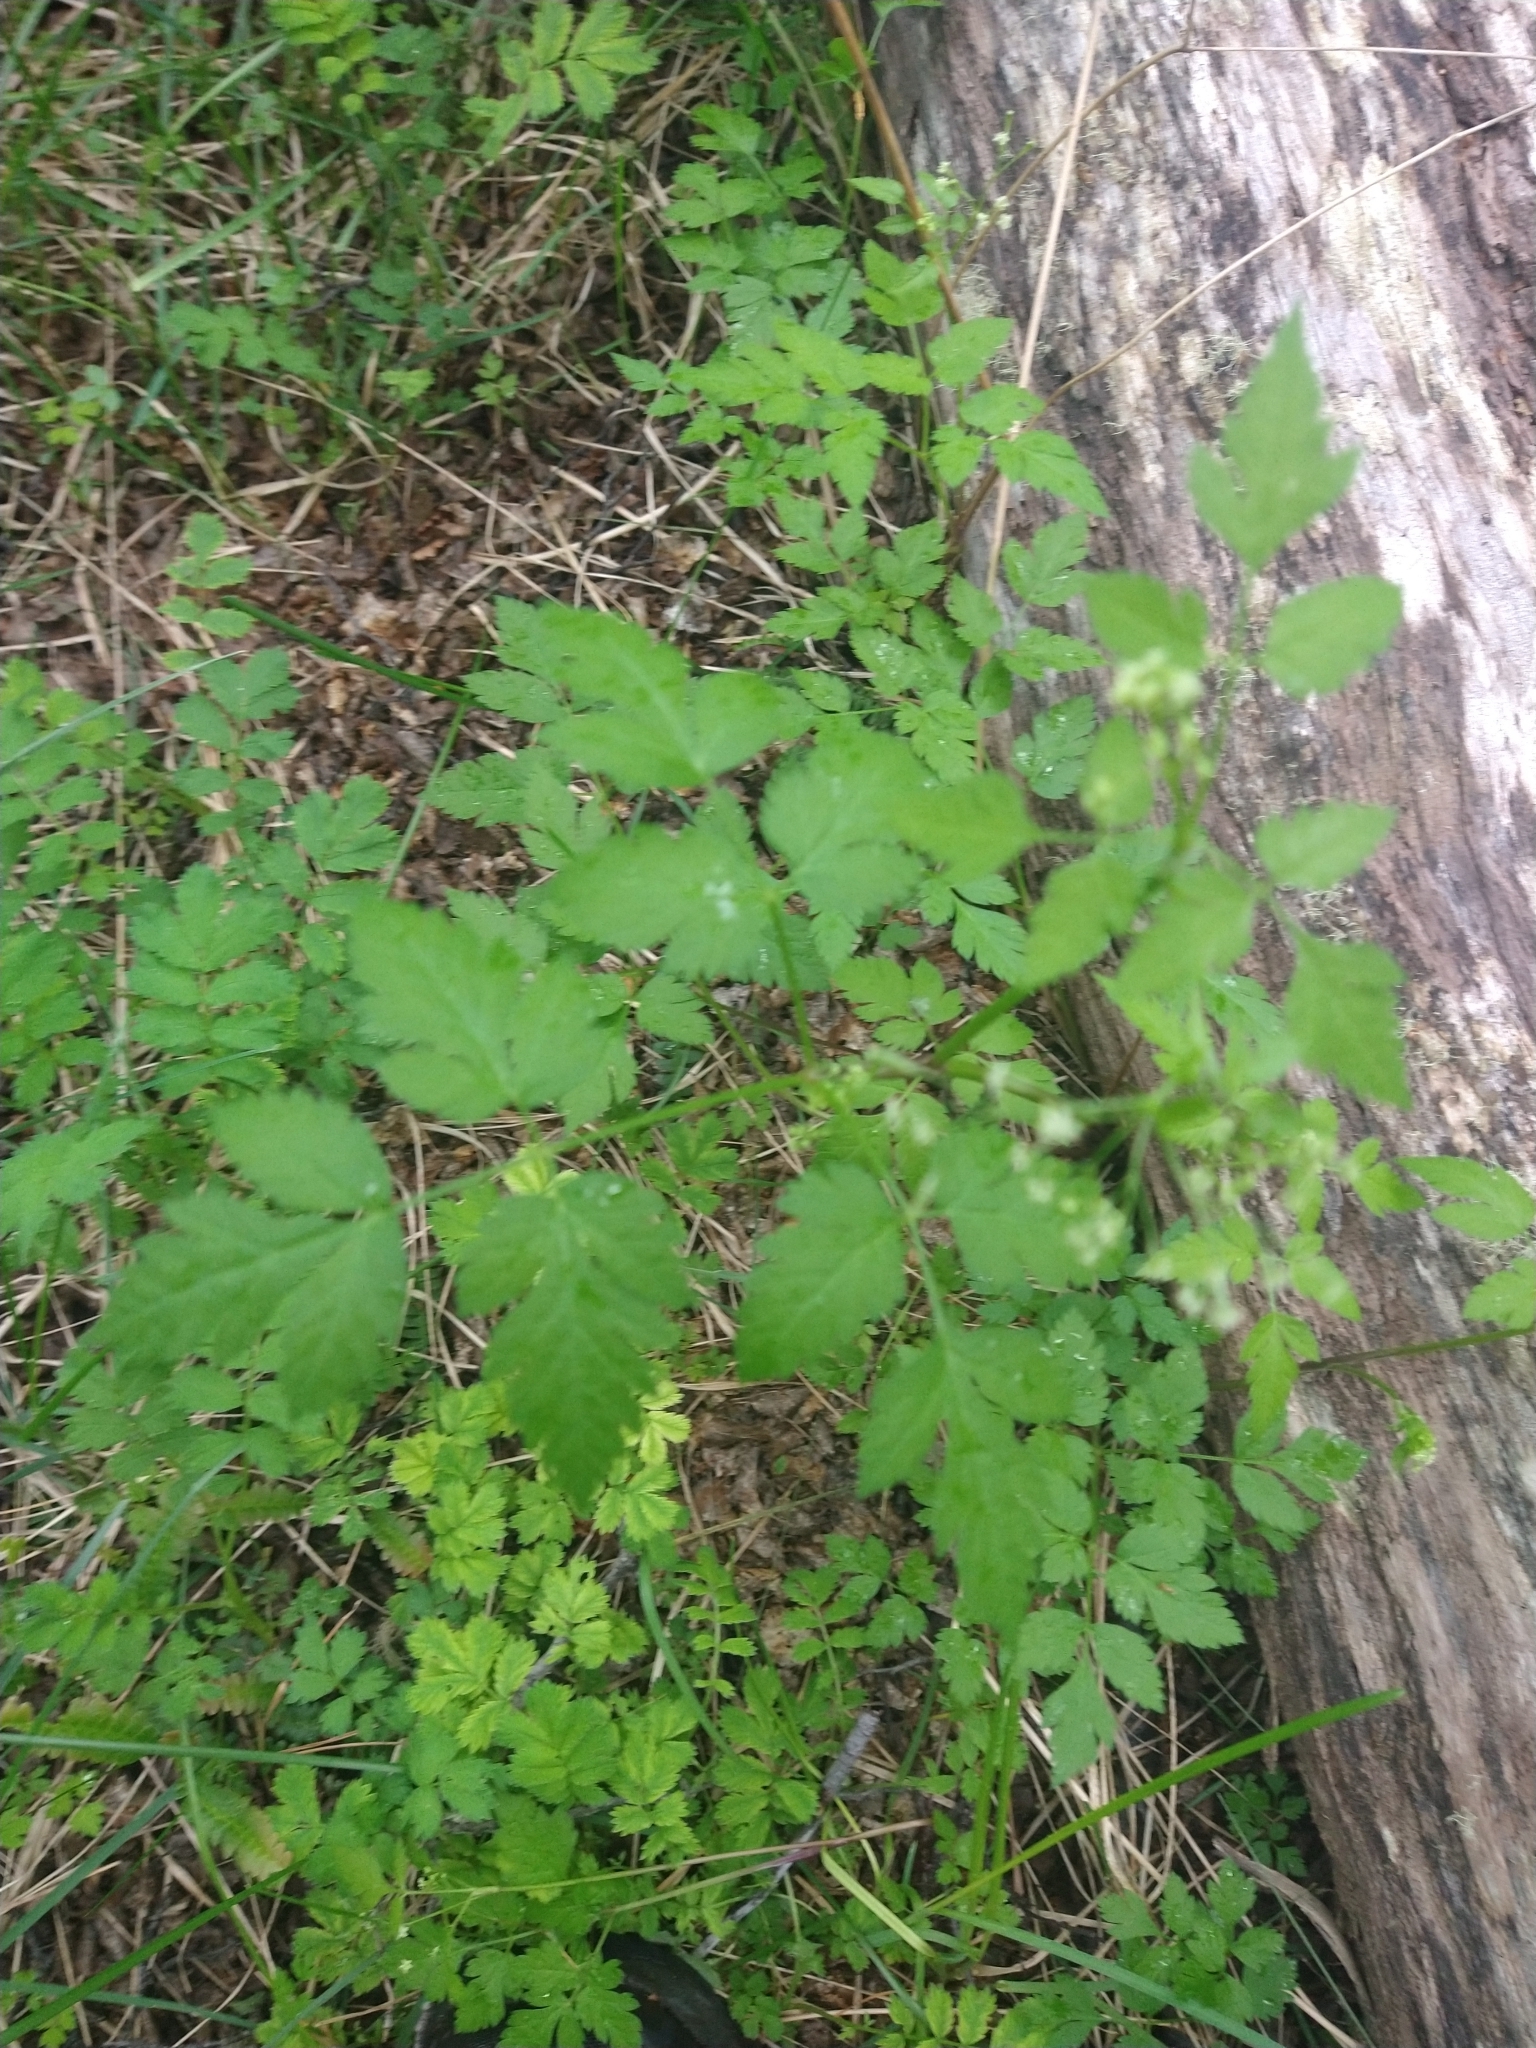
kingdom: Plantae
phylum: Tracheophyta
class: Magnoliopsida
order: Apiales
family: Apiaceae
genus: Osmorhiza
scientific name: Osmorhiza berteroi
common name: Mountain sweet cicely
